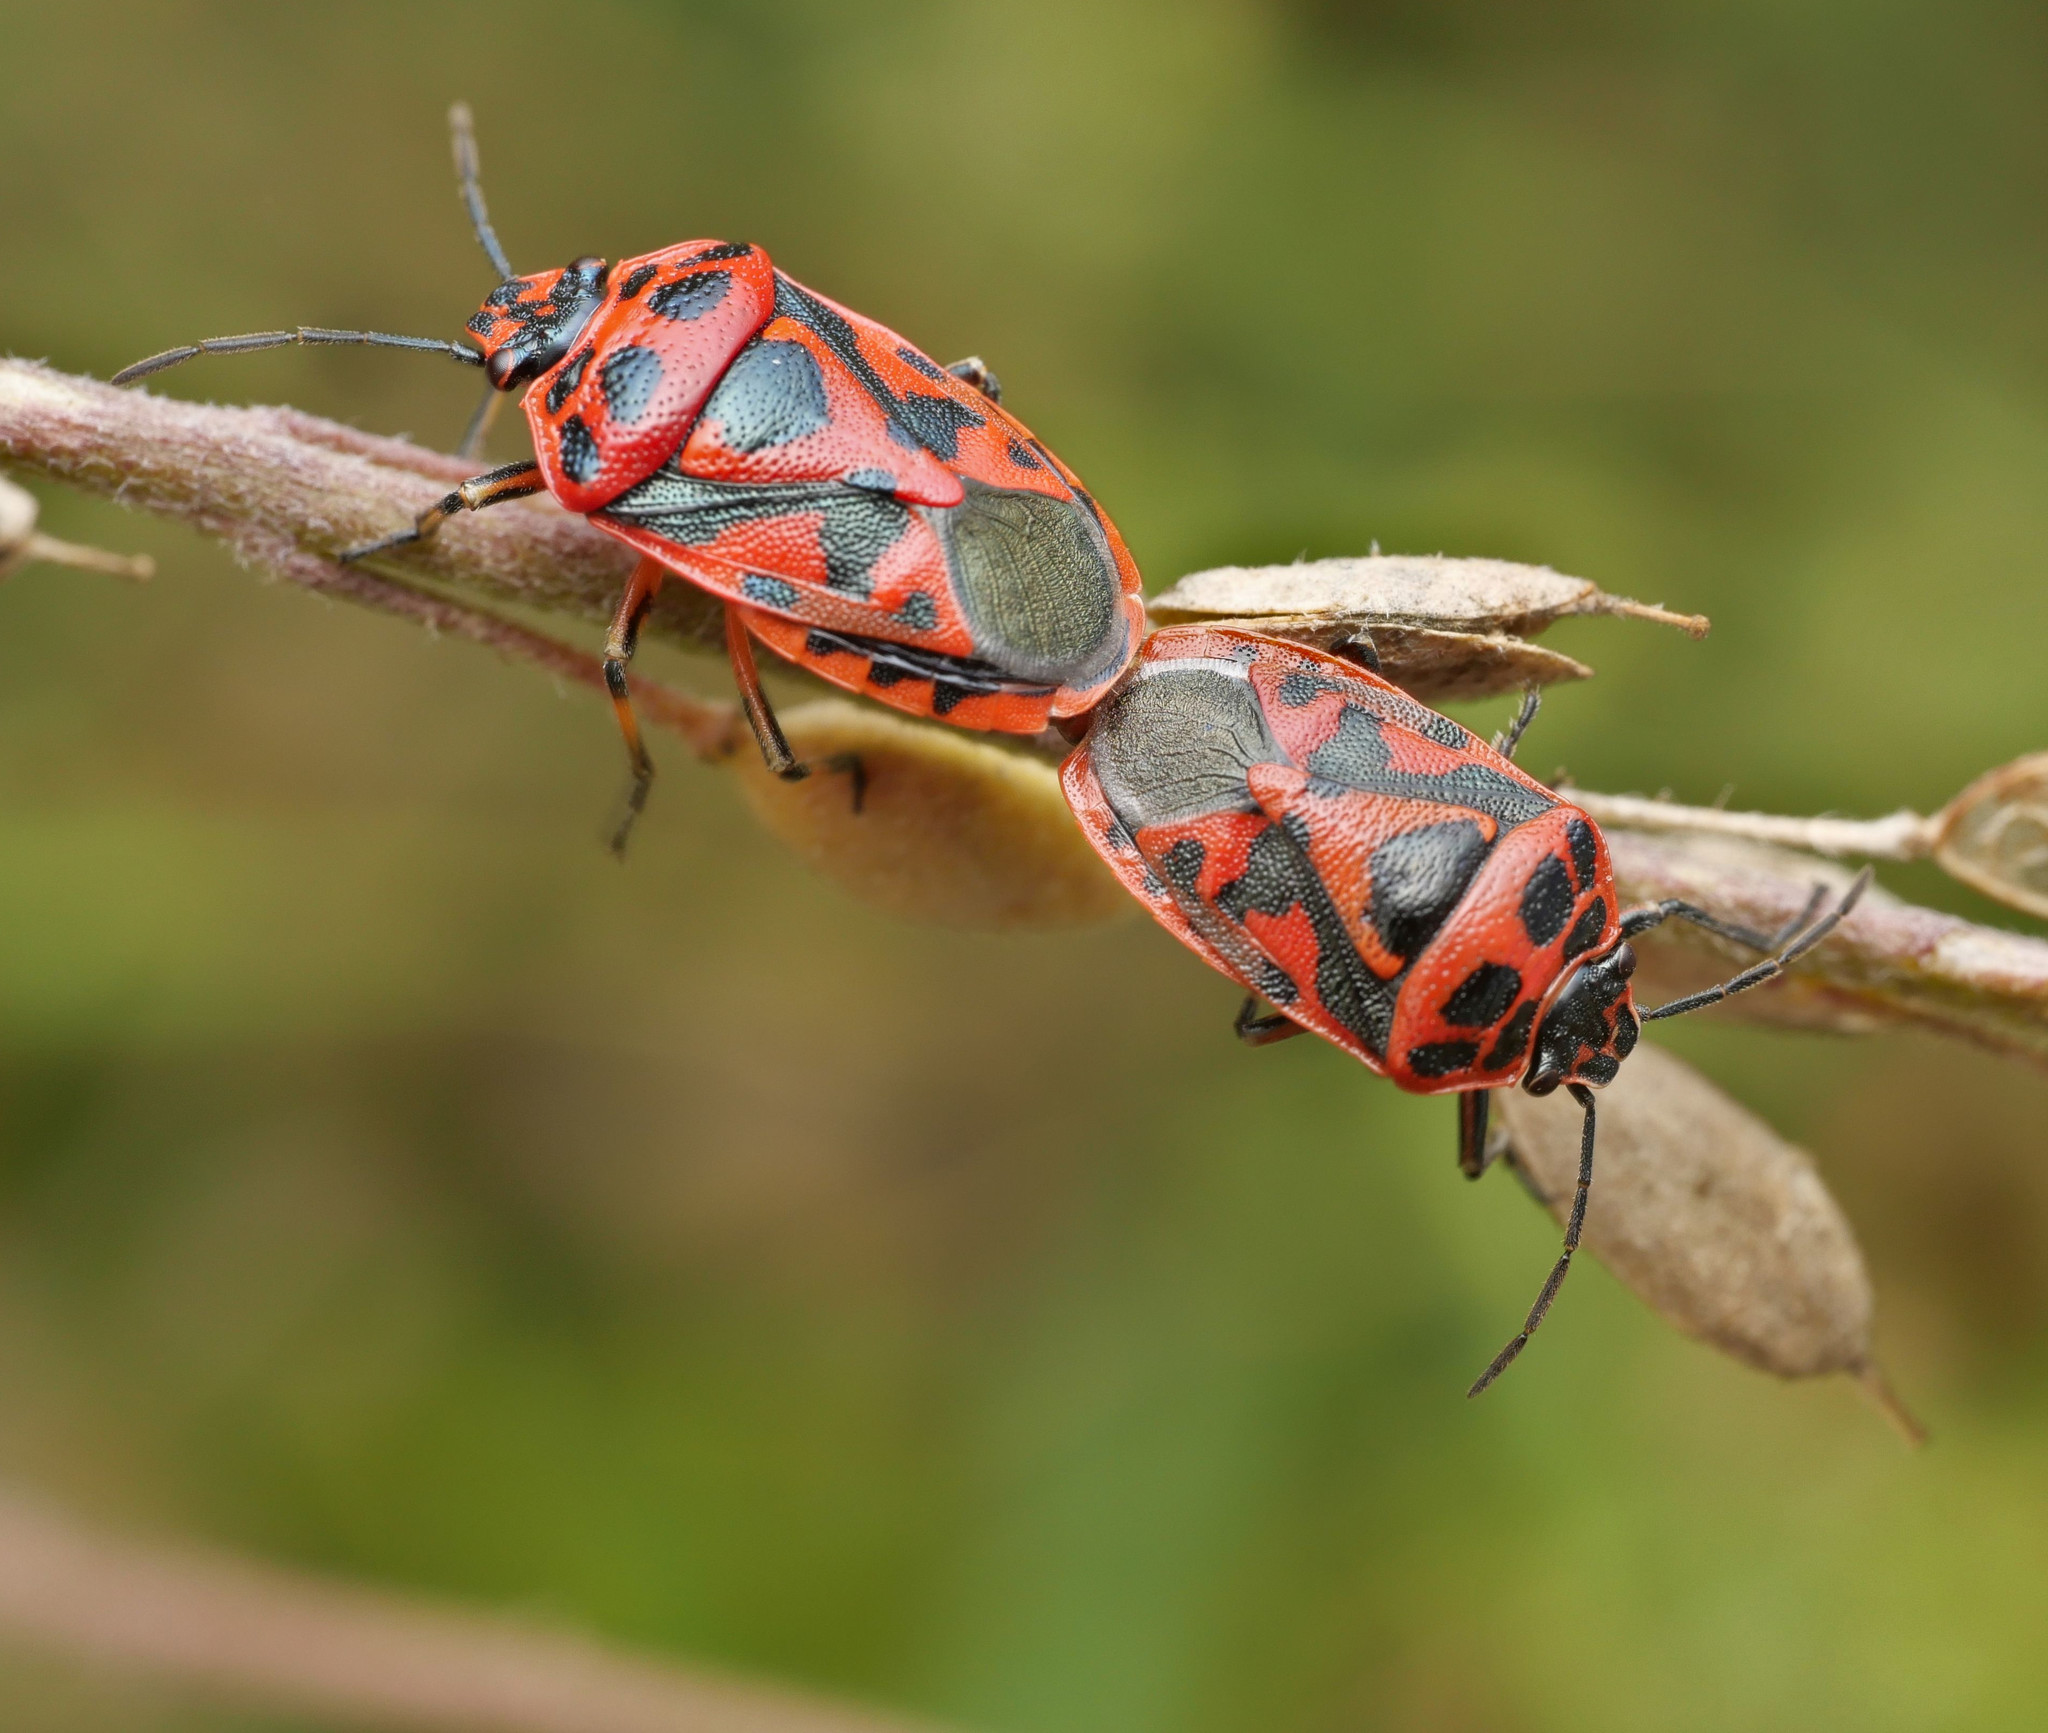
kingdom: Animalia
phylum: Arthropoda
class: Insecta
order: Hemiptera
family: Pentatomidae
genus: Eurydema
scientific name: Eurydema ornata
